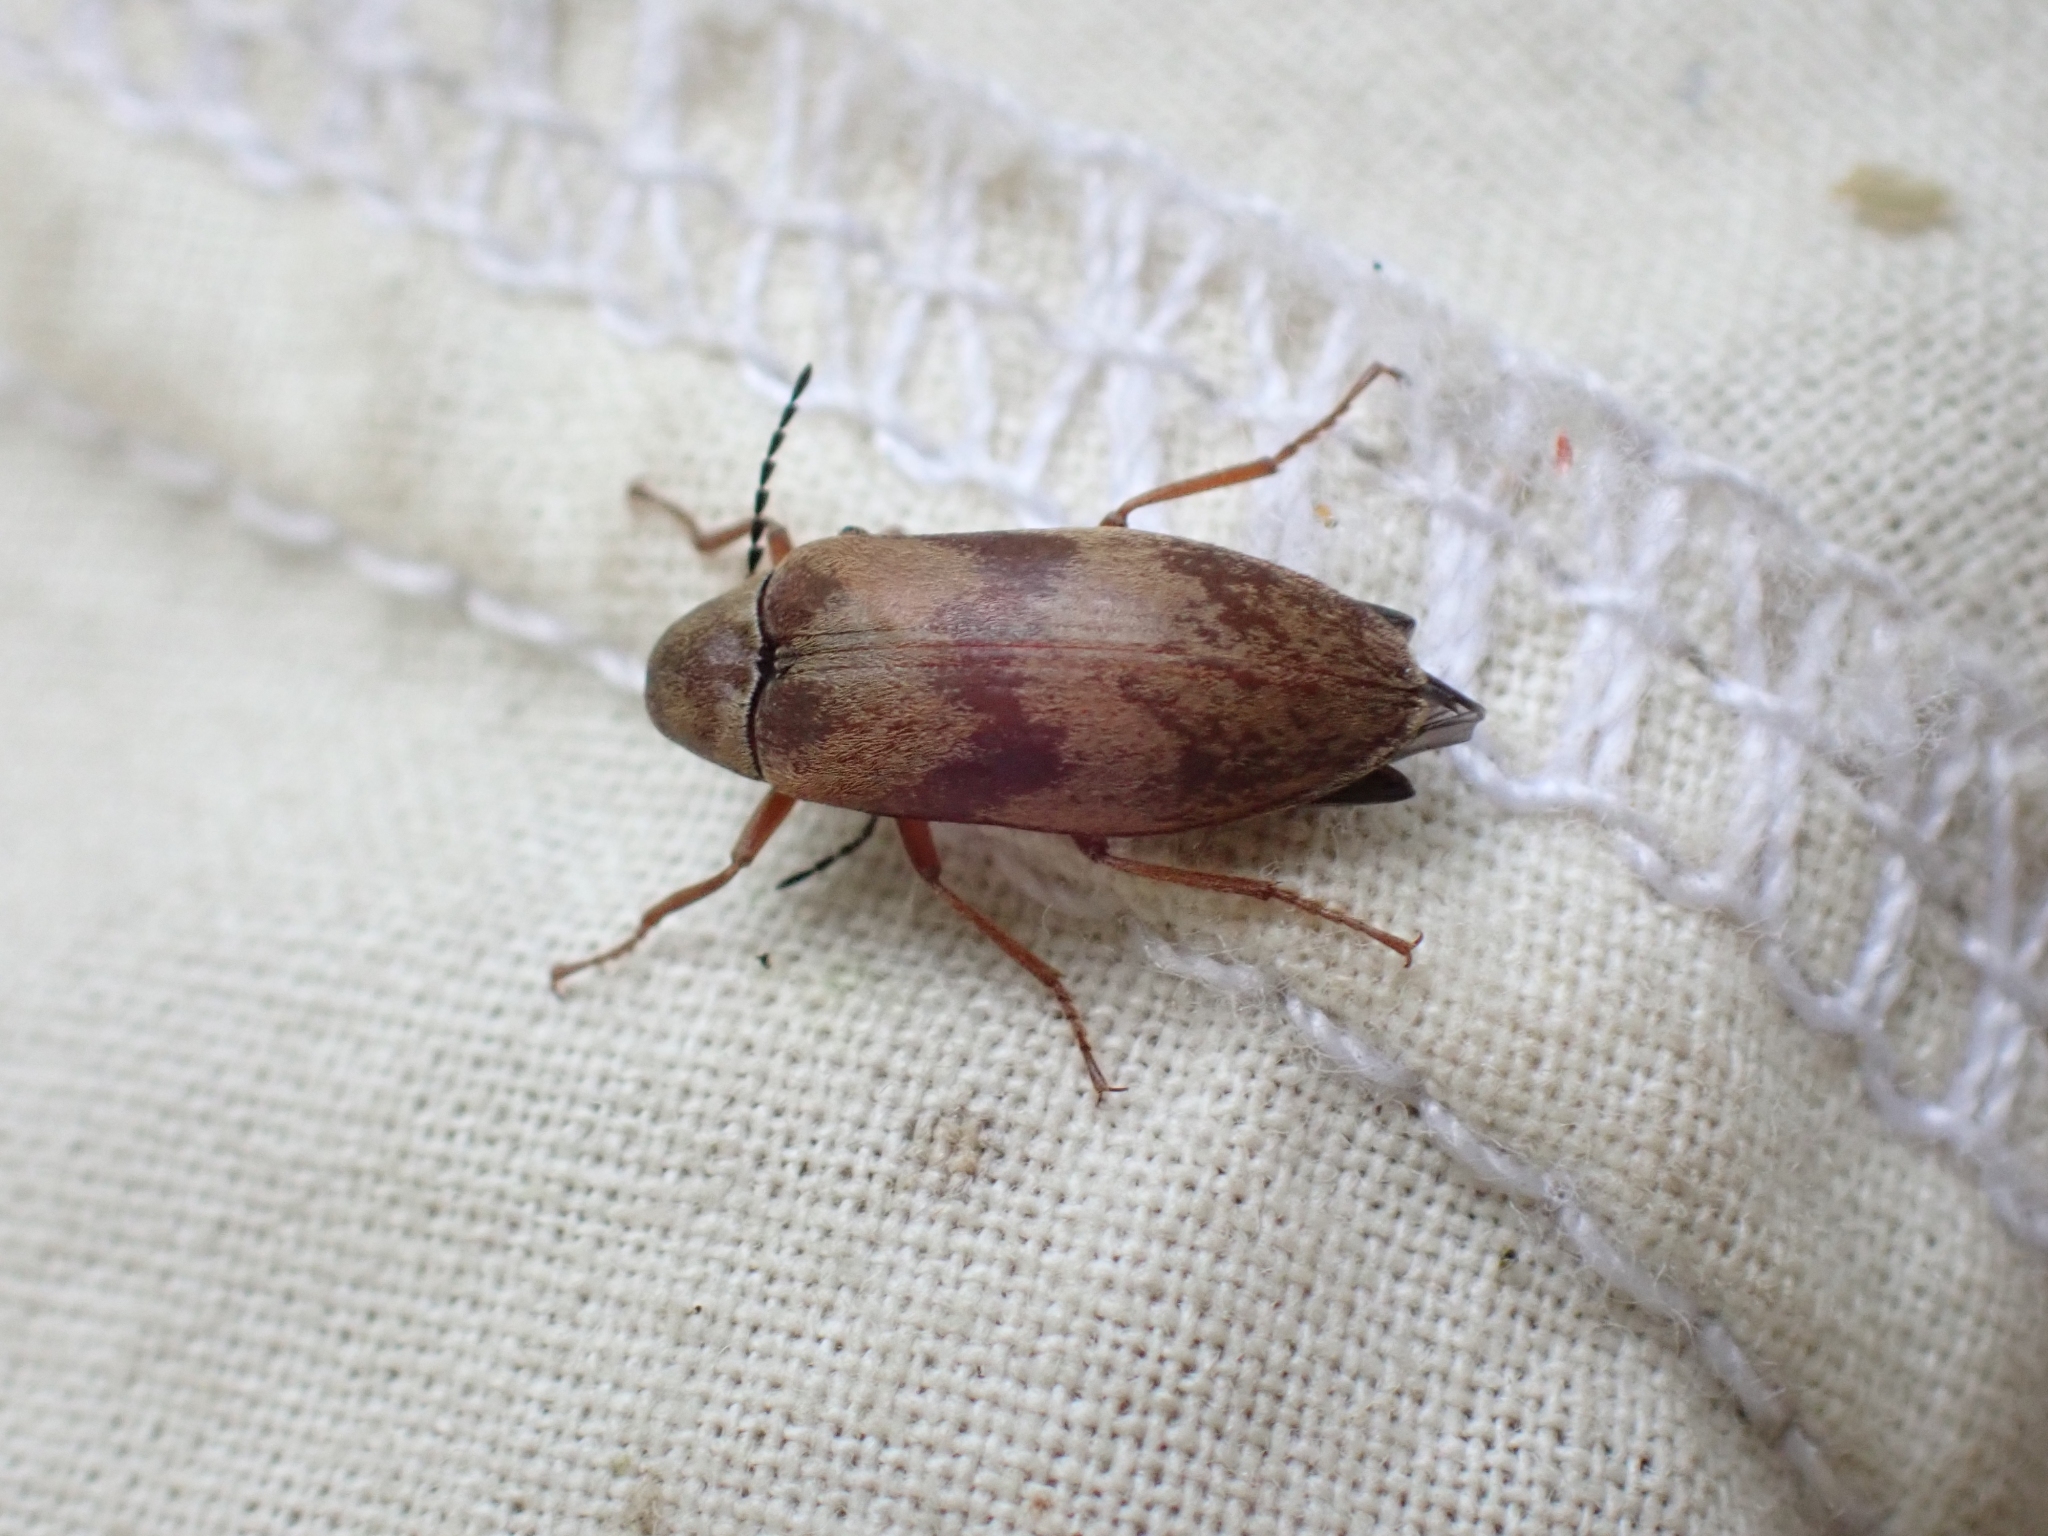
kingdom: Animalia
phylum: Arthropoda
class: Insecta
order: Coleoptera
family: Ptilodactylidae
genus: Araeopidius
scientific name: Araeopidius monachus
